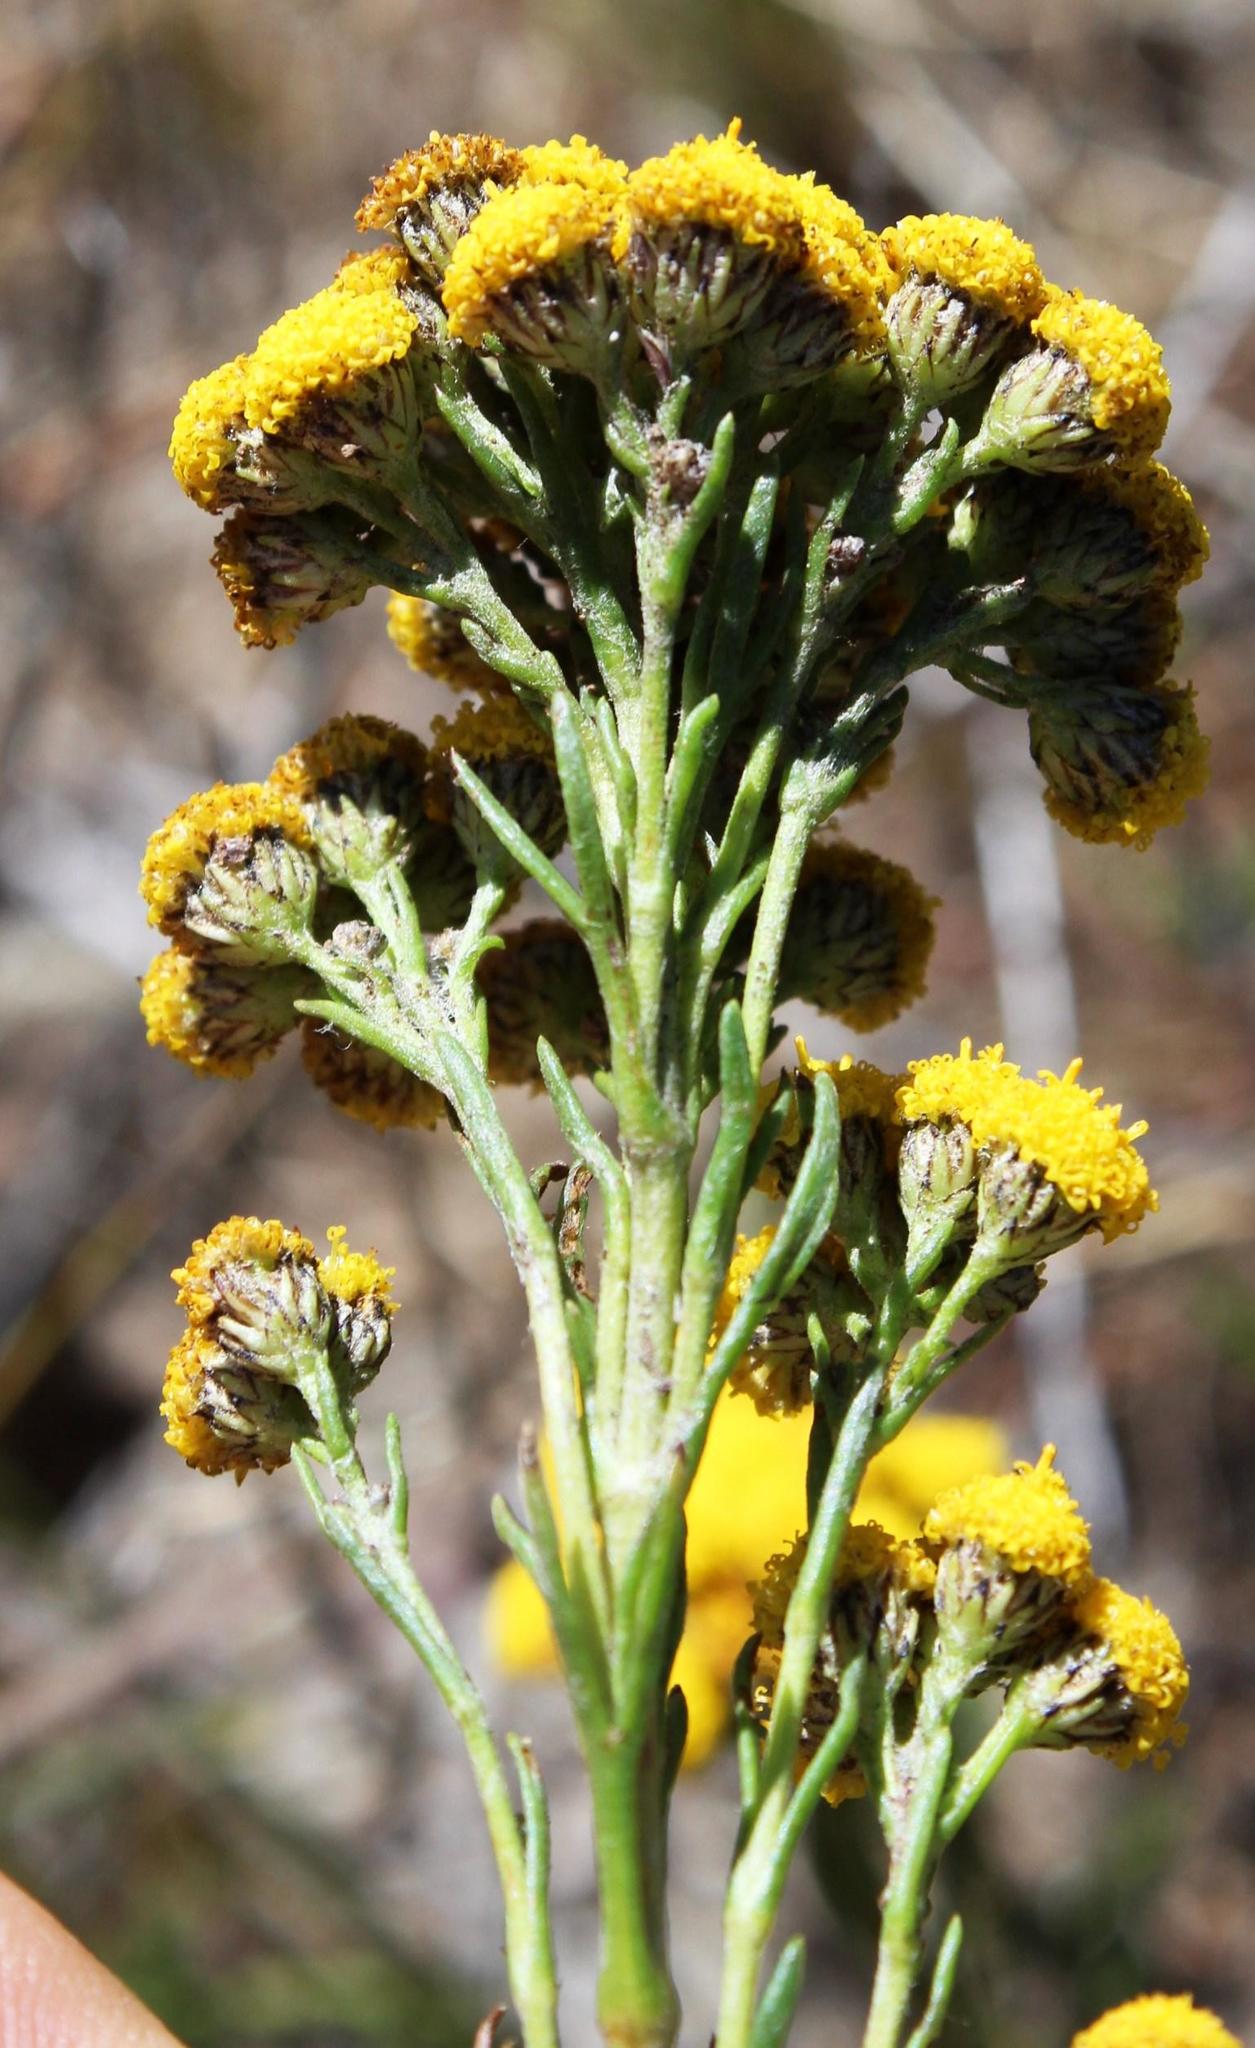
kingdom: Plantae
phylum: Tracheophyta
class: Magnoliopsida
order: Asterales
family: Asteraceae
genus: Inulanthera
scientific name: Inulanthera dregeana
